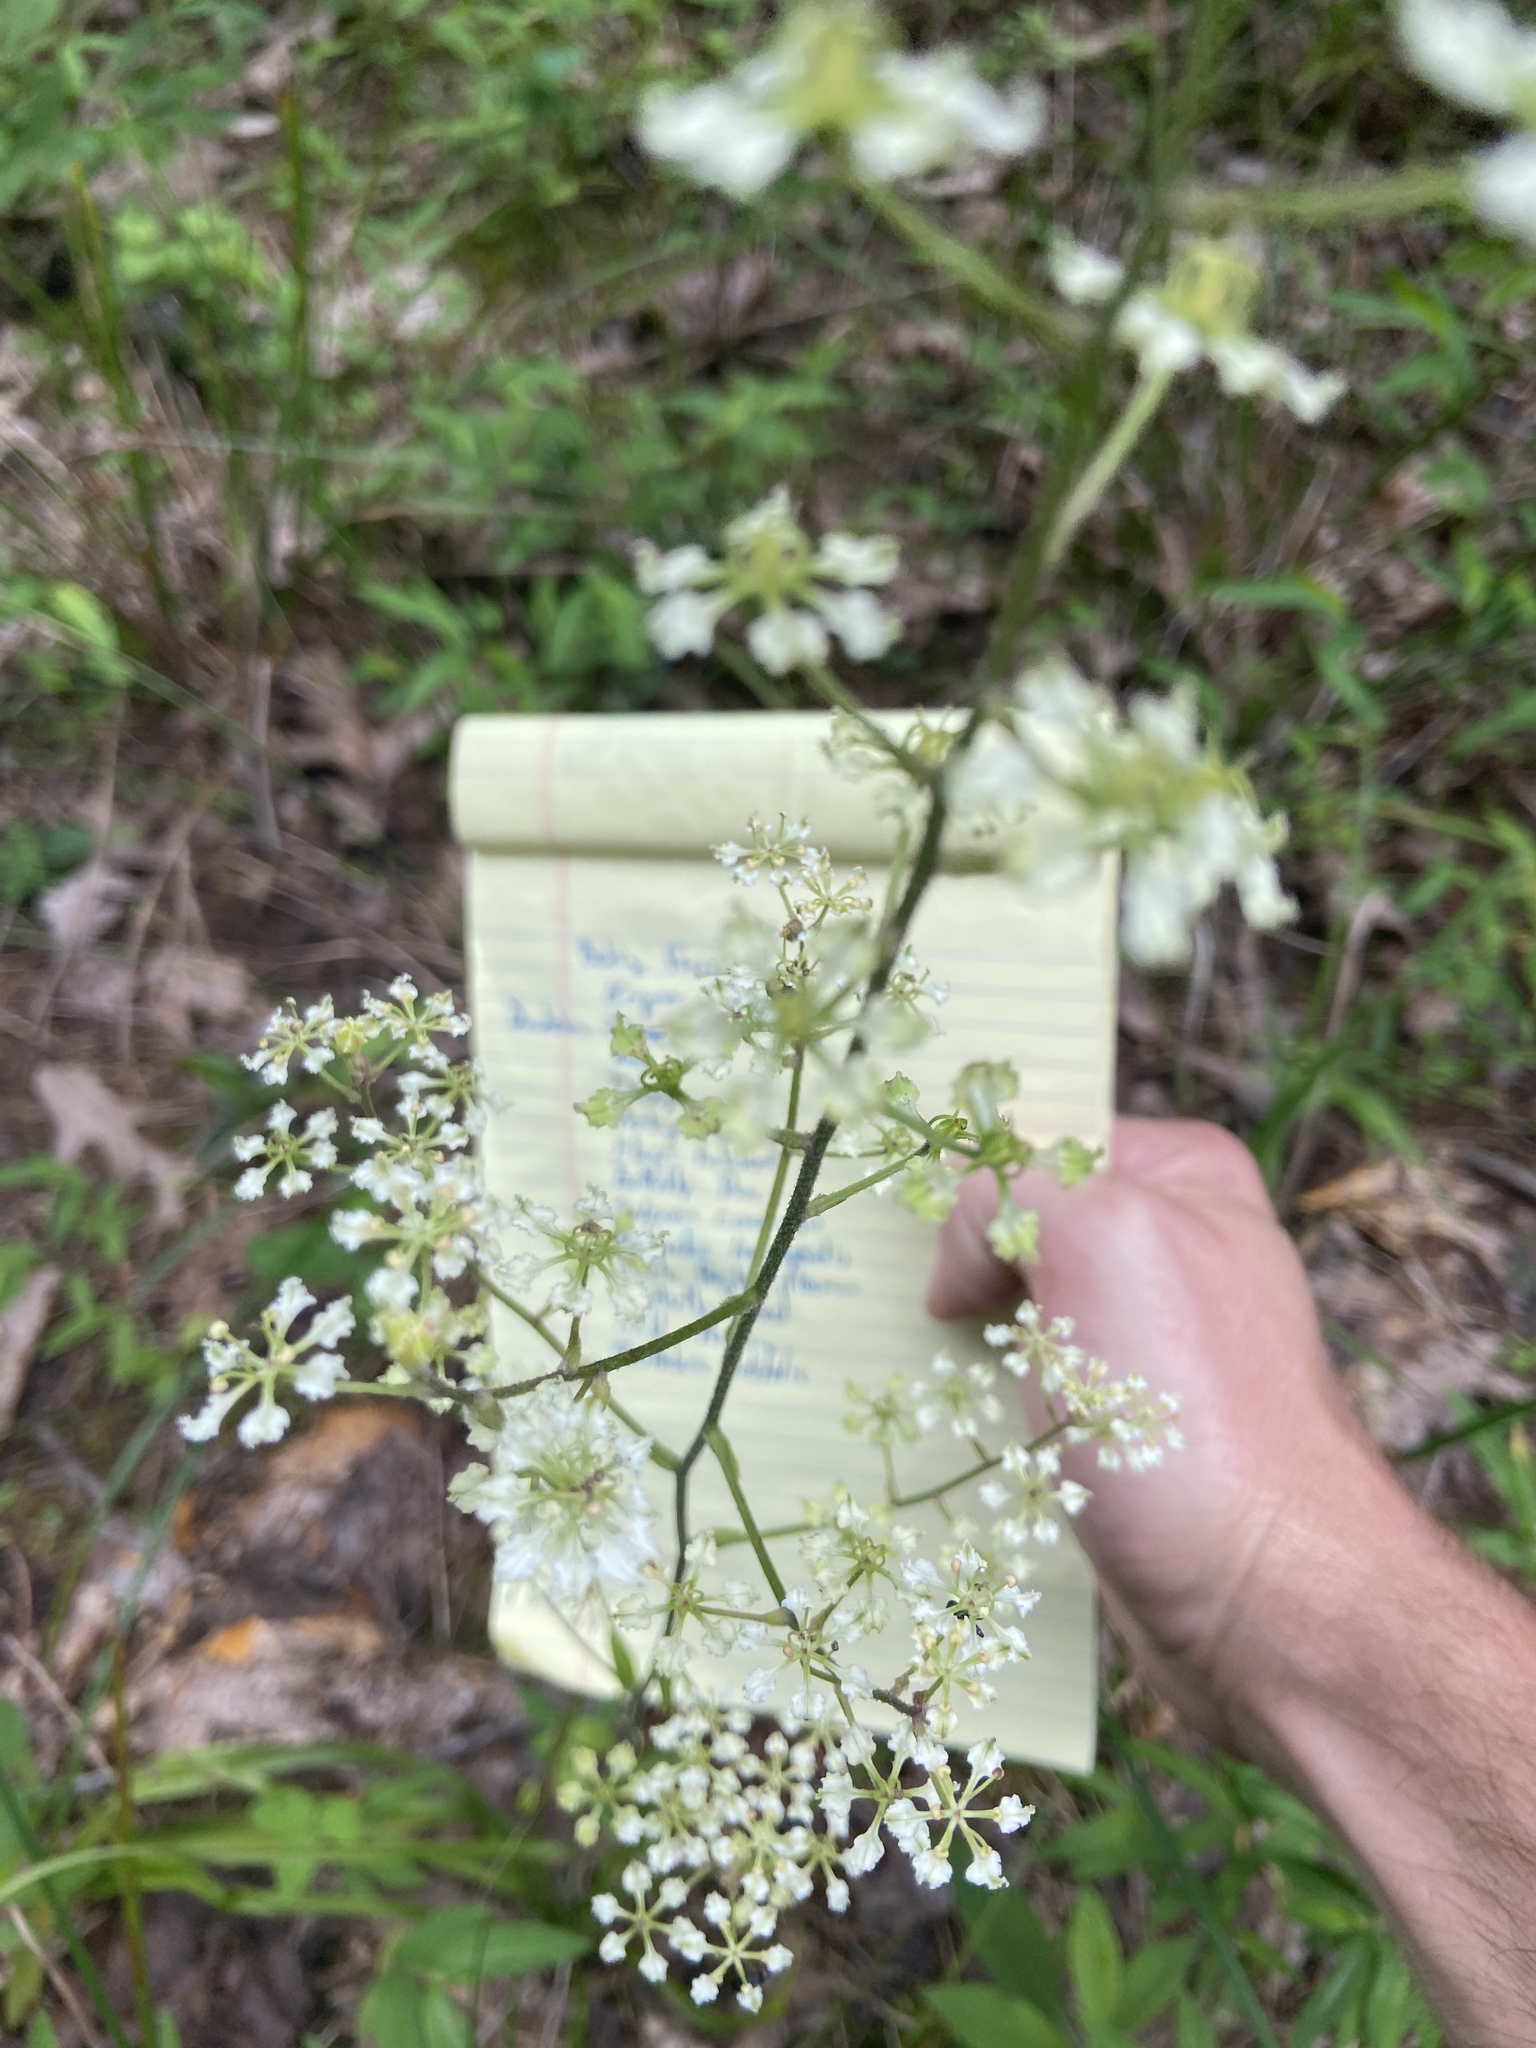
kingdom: Plantae
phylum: Tracheophyta
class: Liliopsida
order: Liliales
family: Melanthiaceae
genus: Veratrum
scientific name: Veratrum hybridum
